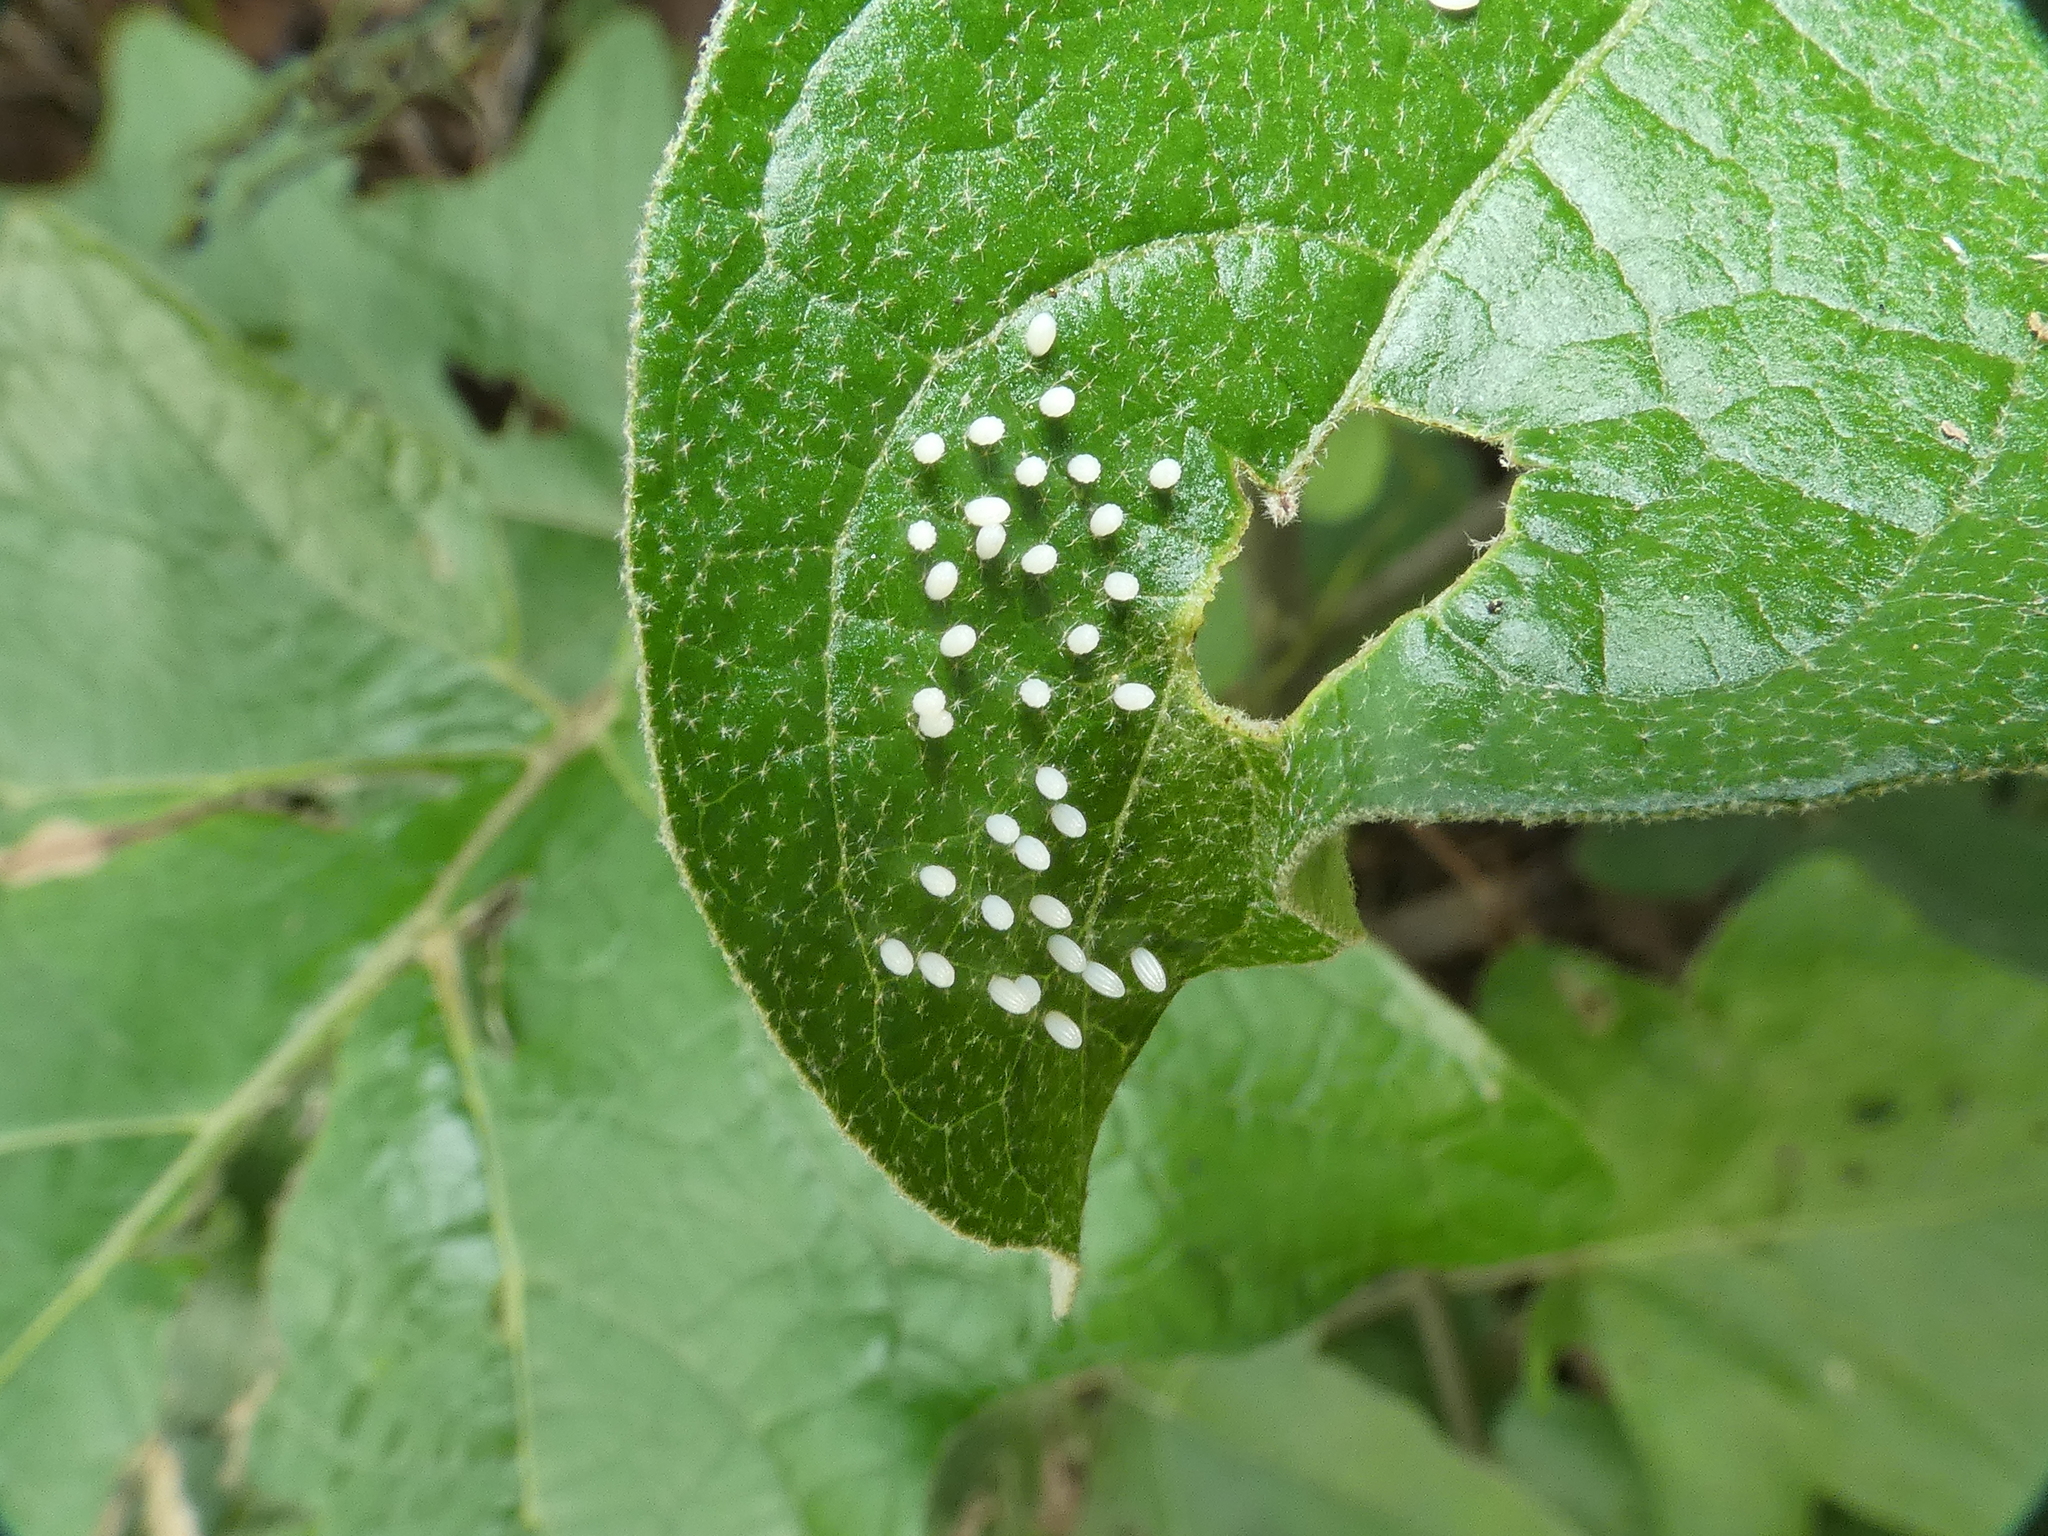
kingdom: Animalia
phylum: Arthropoda
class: Insecta
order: Lepidoptera
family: Nymphalidae
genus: Mechanitis
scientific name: Mechanitis lysimnia
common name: Lysimnia tigerwing
